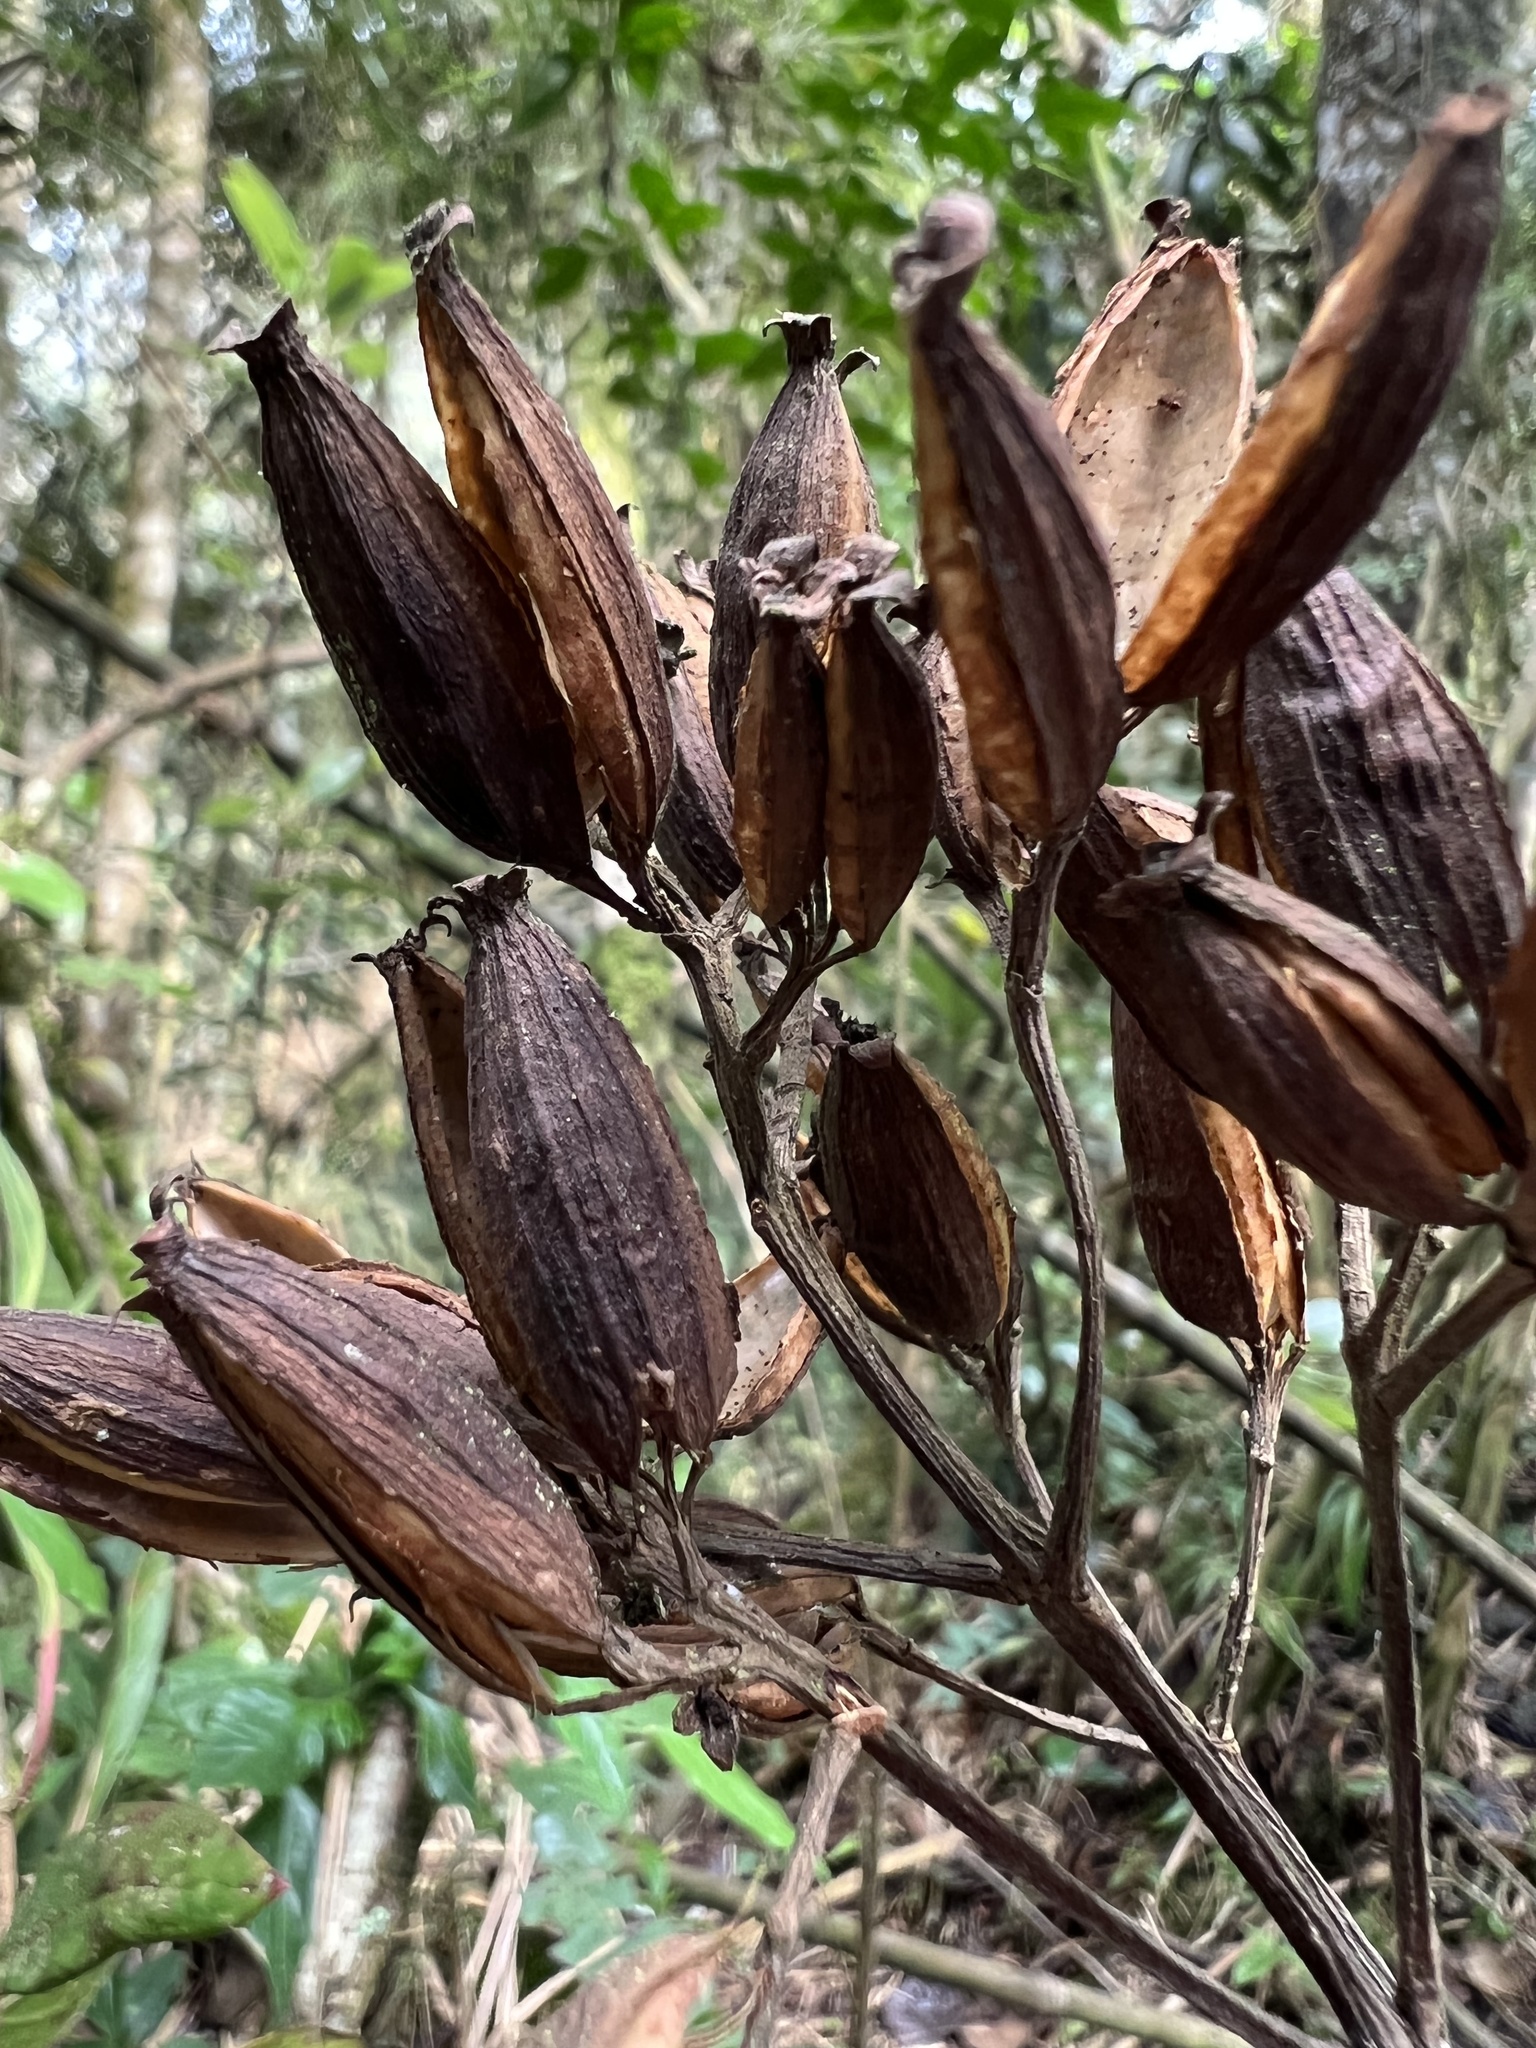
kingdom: Plantae
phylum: Tracheophyta
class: Magnoliopsida
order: Gentianales
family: Rubiaceae
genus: Cinchona
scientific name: Cinchona lancifolia
